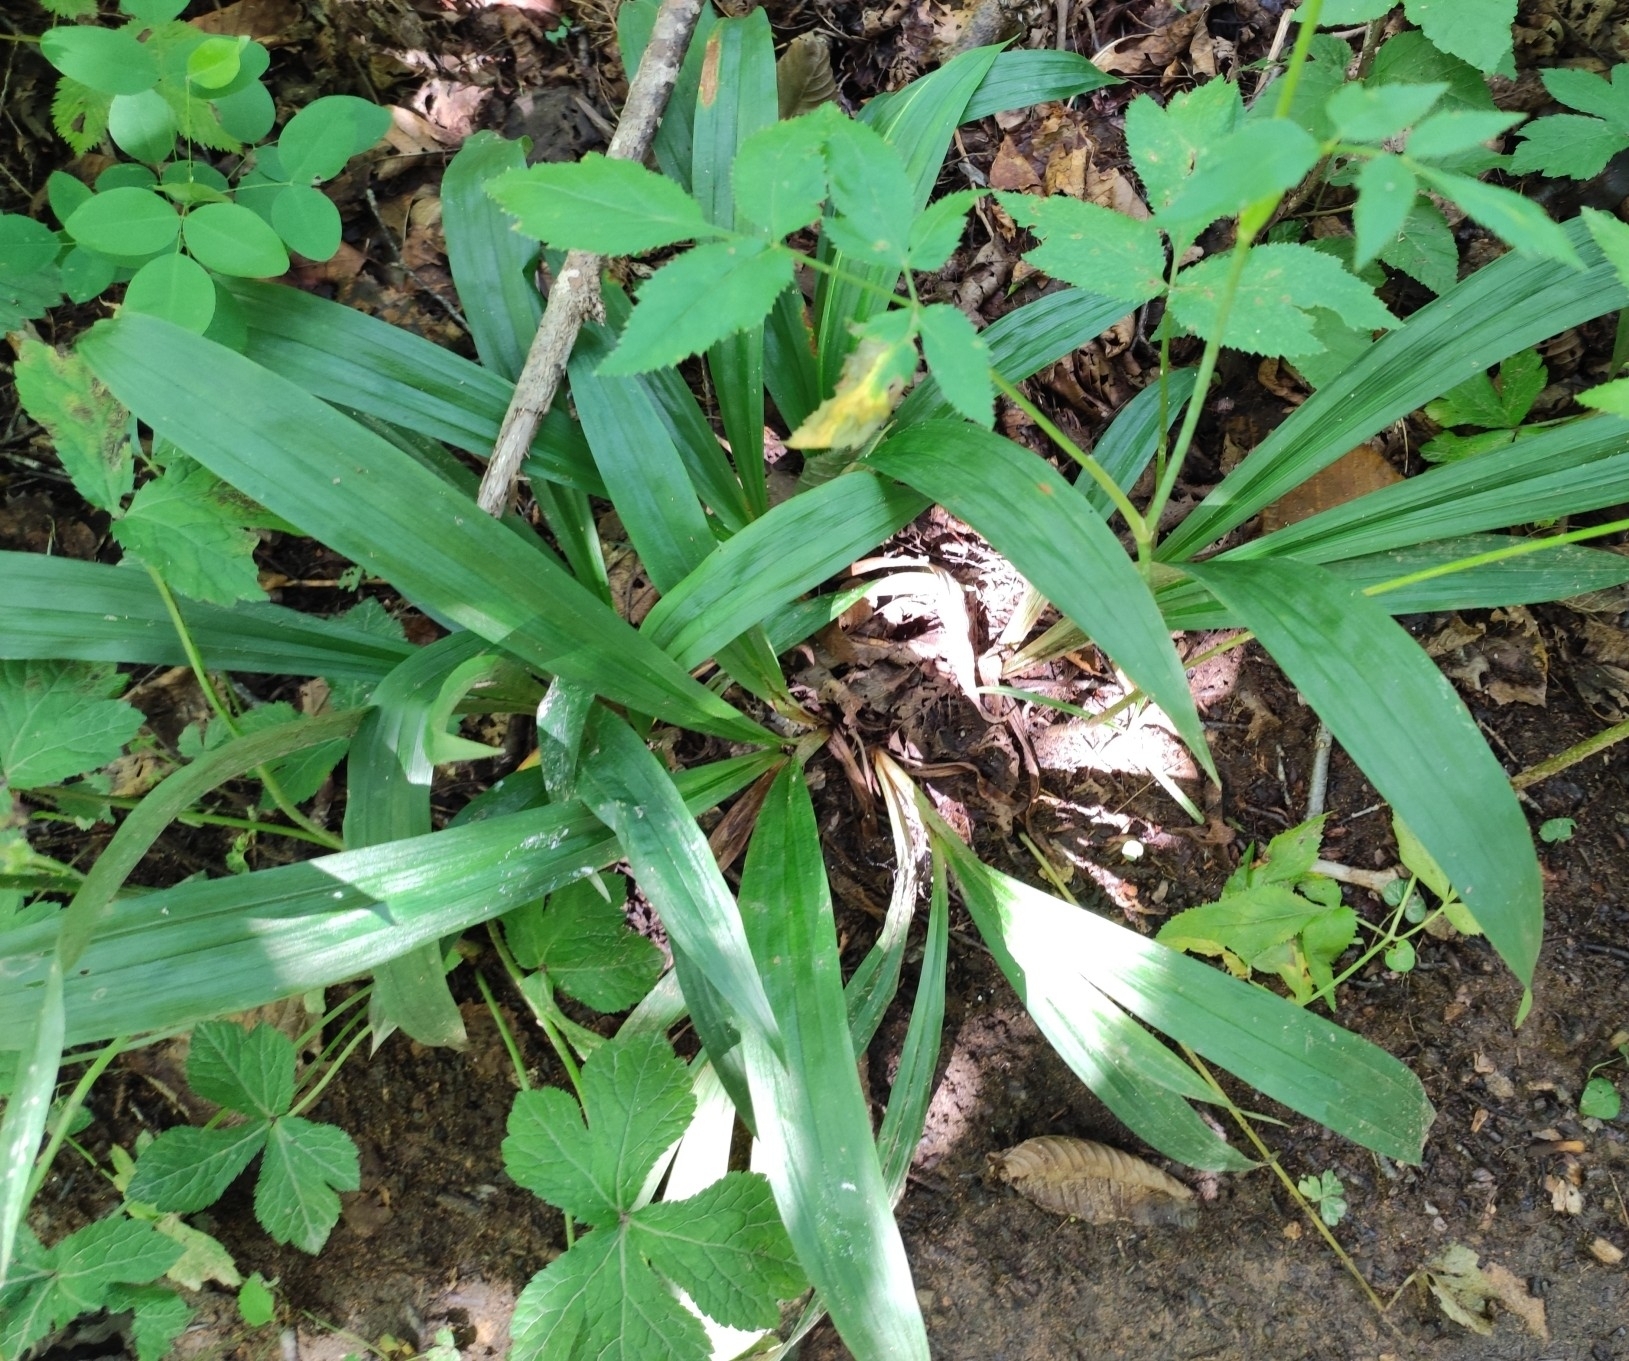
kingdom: Plantae
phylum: Tracheophyta
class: Liliopsida
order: Poales
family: Cyperaceae
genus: Carex
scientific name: Carex siderosticta
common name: Broadleaf sedge
